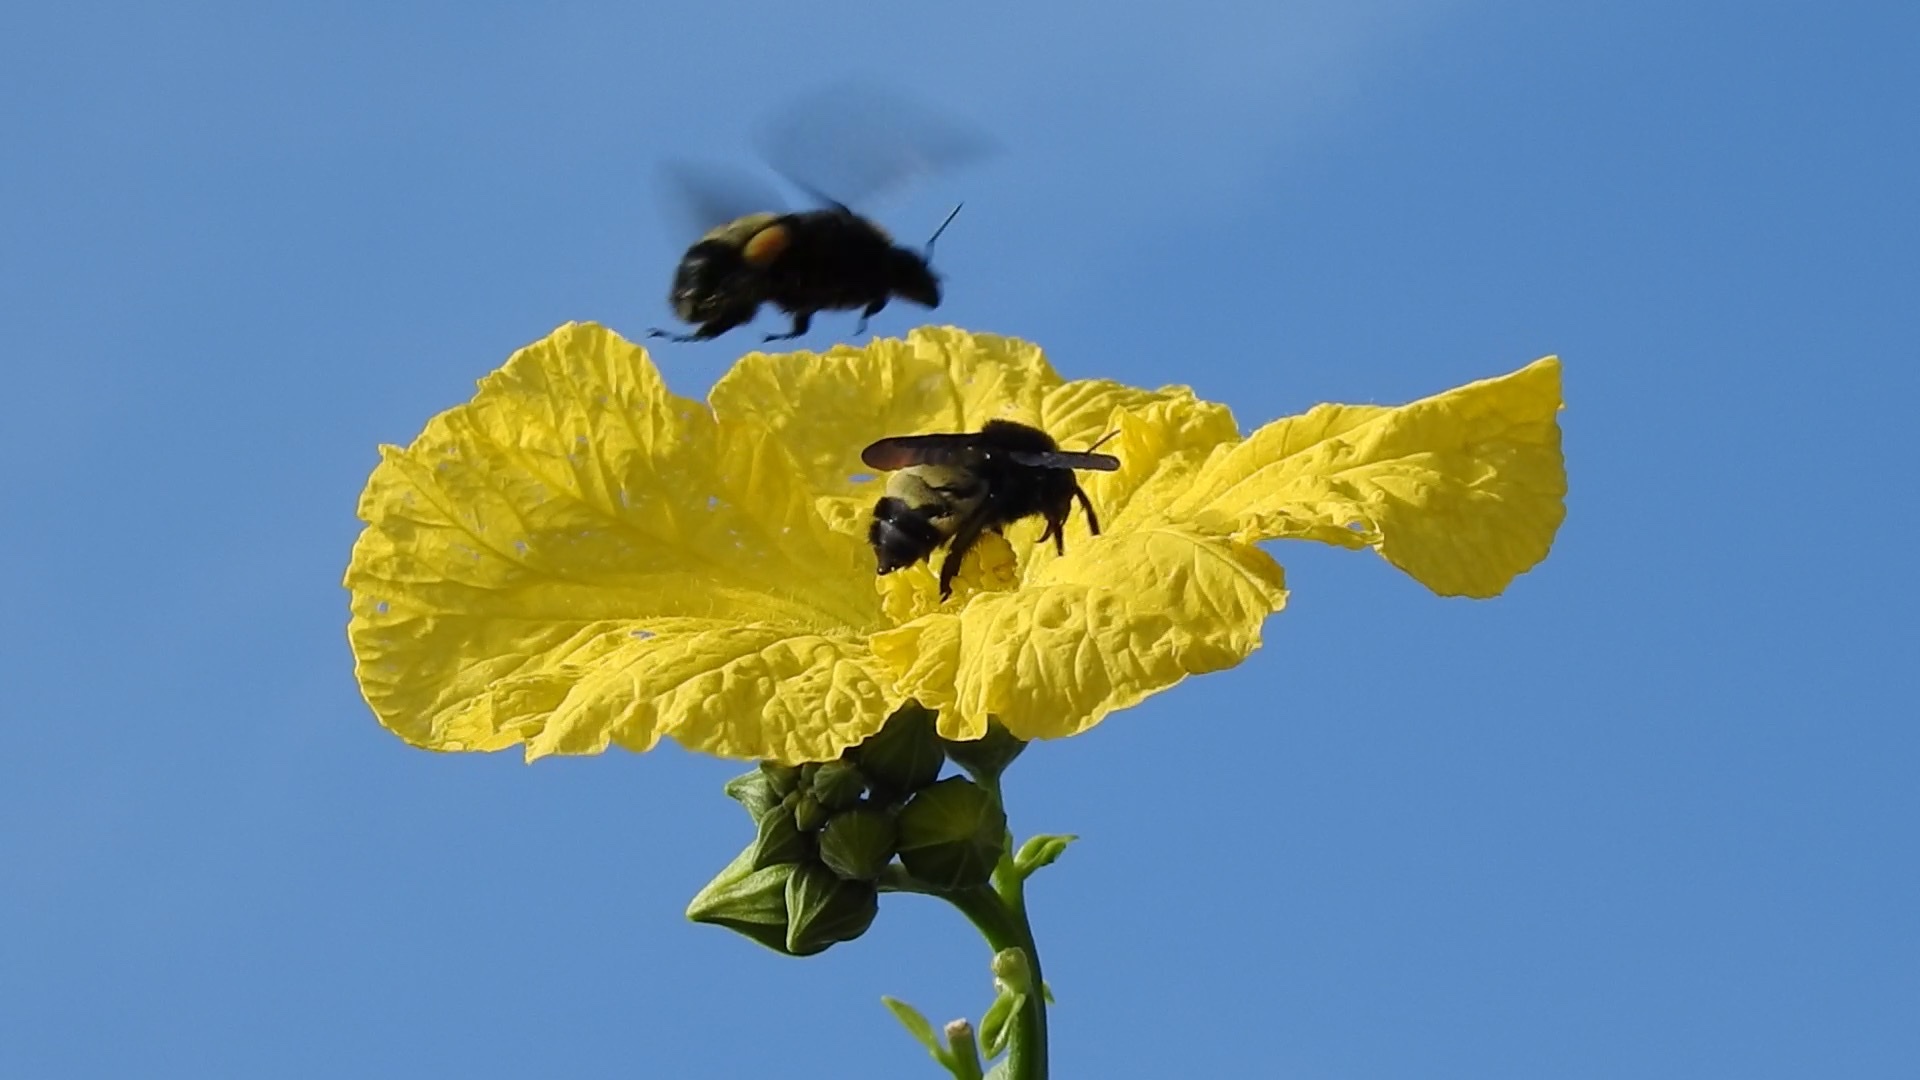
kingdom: Animalia
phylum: Arthropoda
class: Insecta
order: Hymenoptera
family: Apidae
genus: Bombus
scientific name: Bombus pensylvanicus
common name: Bumble bee
